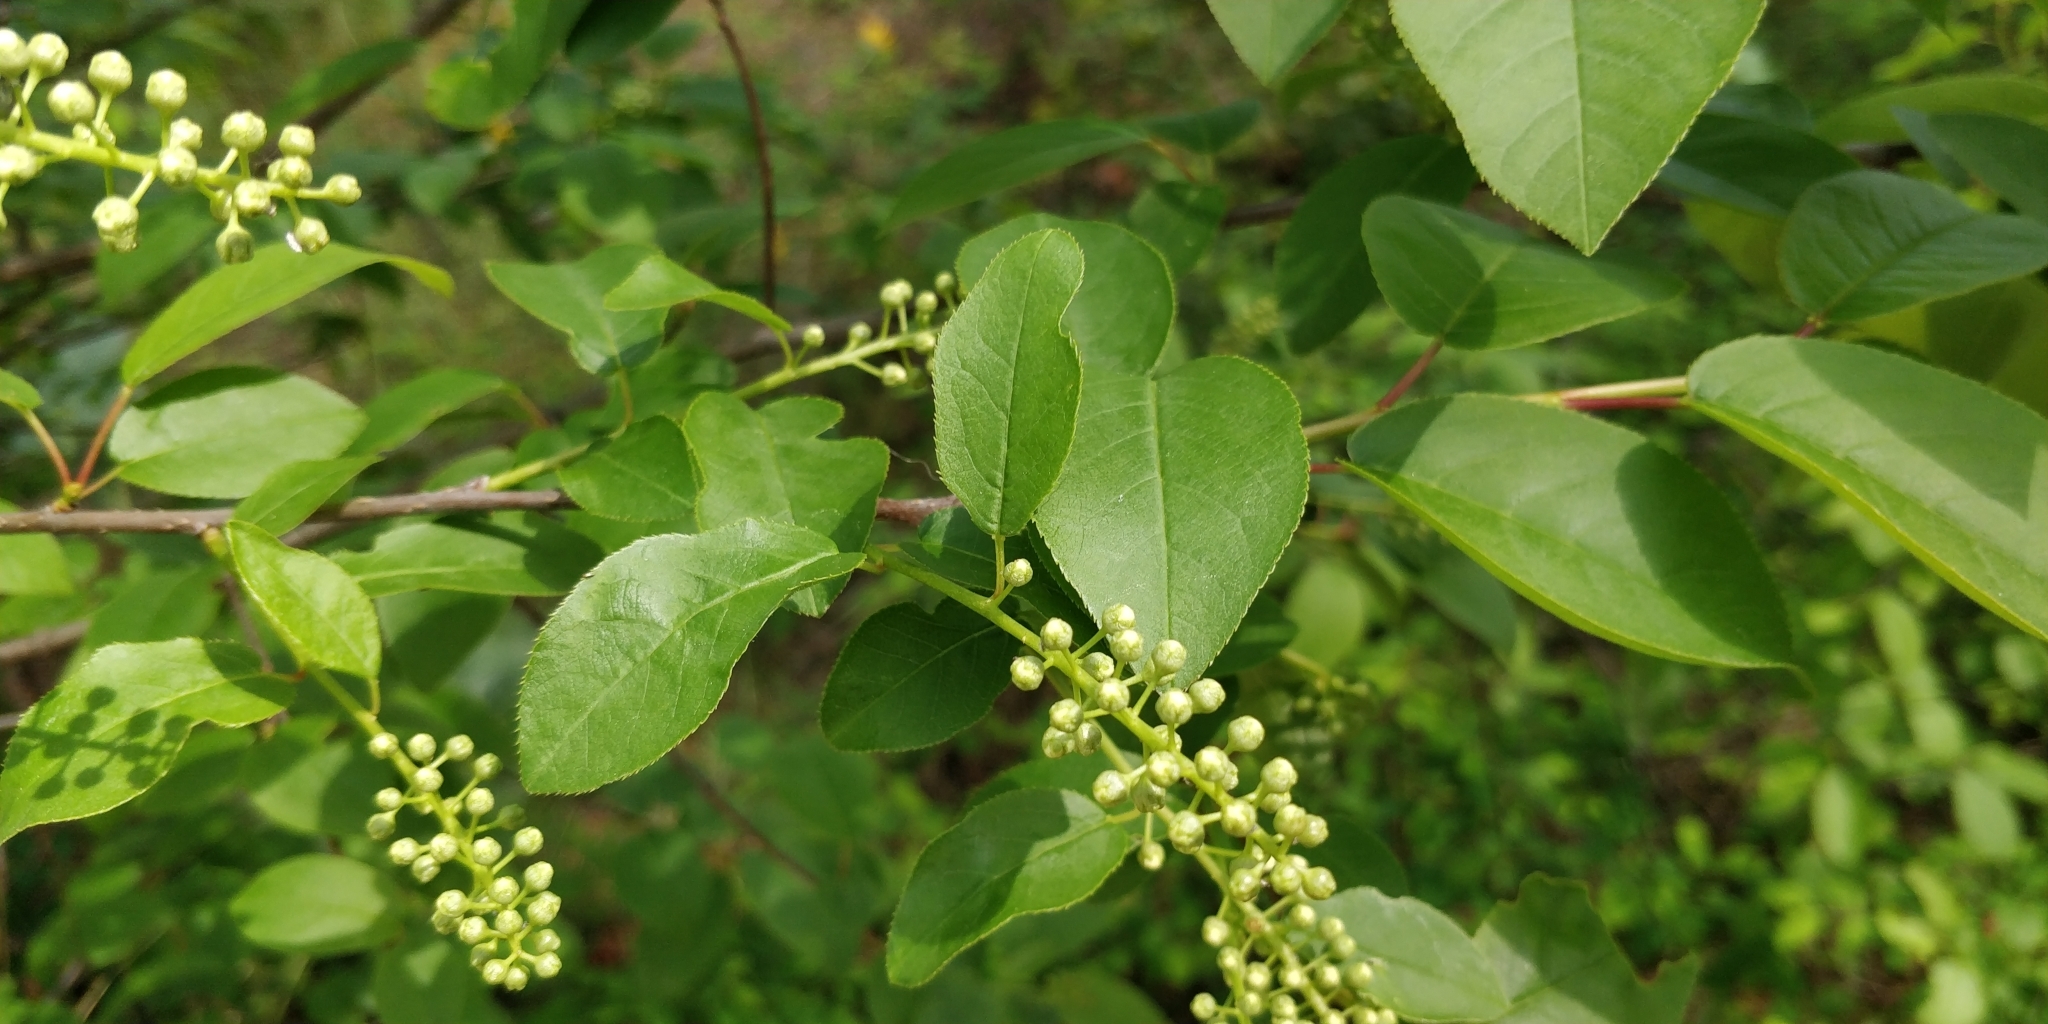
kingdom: Plantae
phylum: Tracheophyta
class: Magnoliopsida
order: Rosales
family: Rosaceae
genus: Prunus
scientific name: Prunus virginiana
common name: Chokecherry
